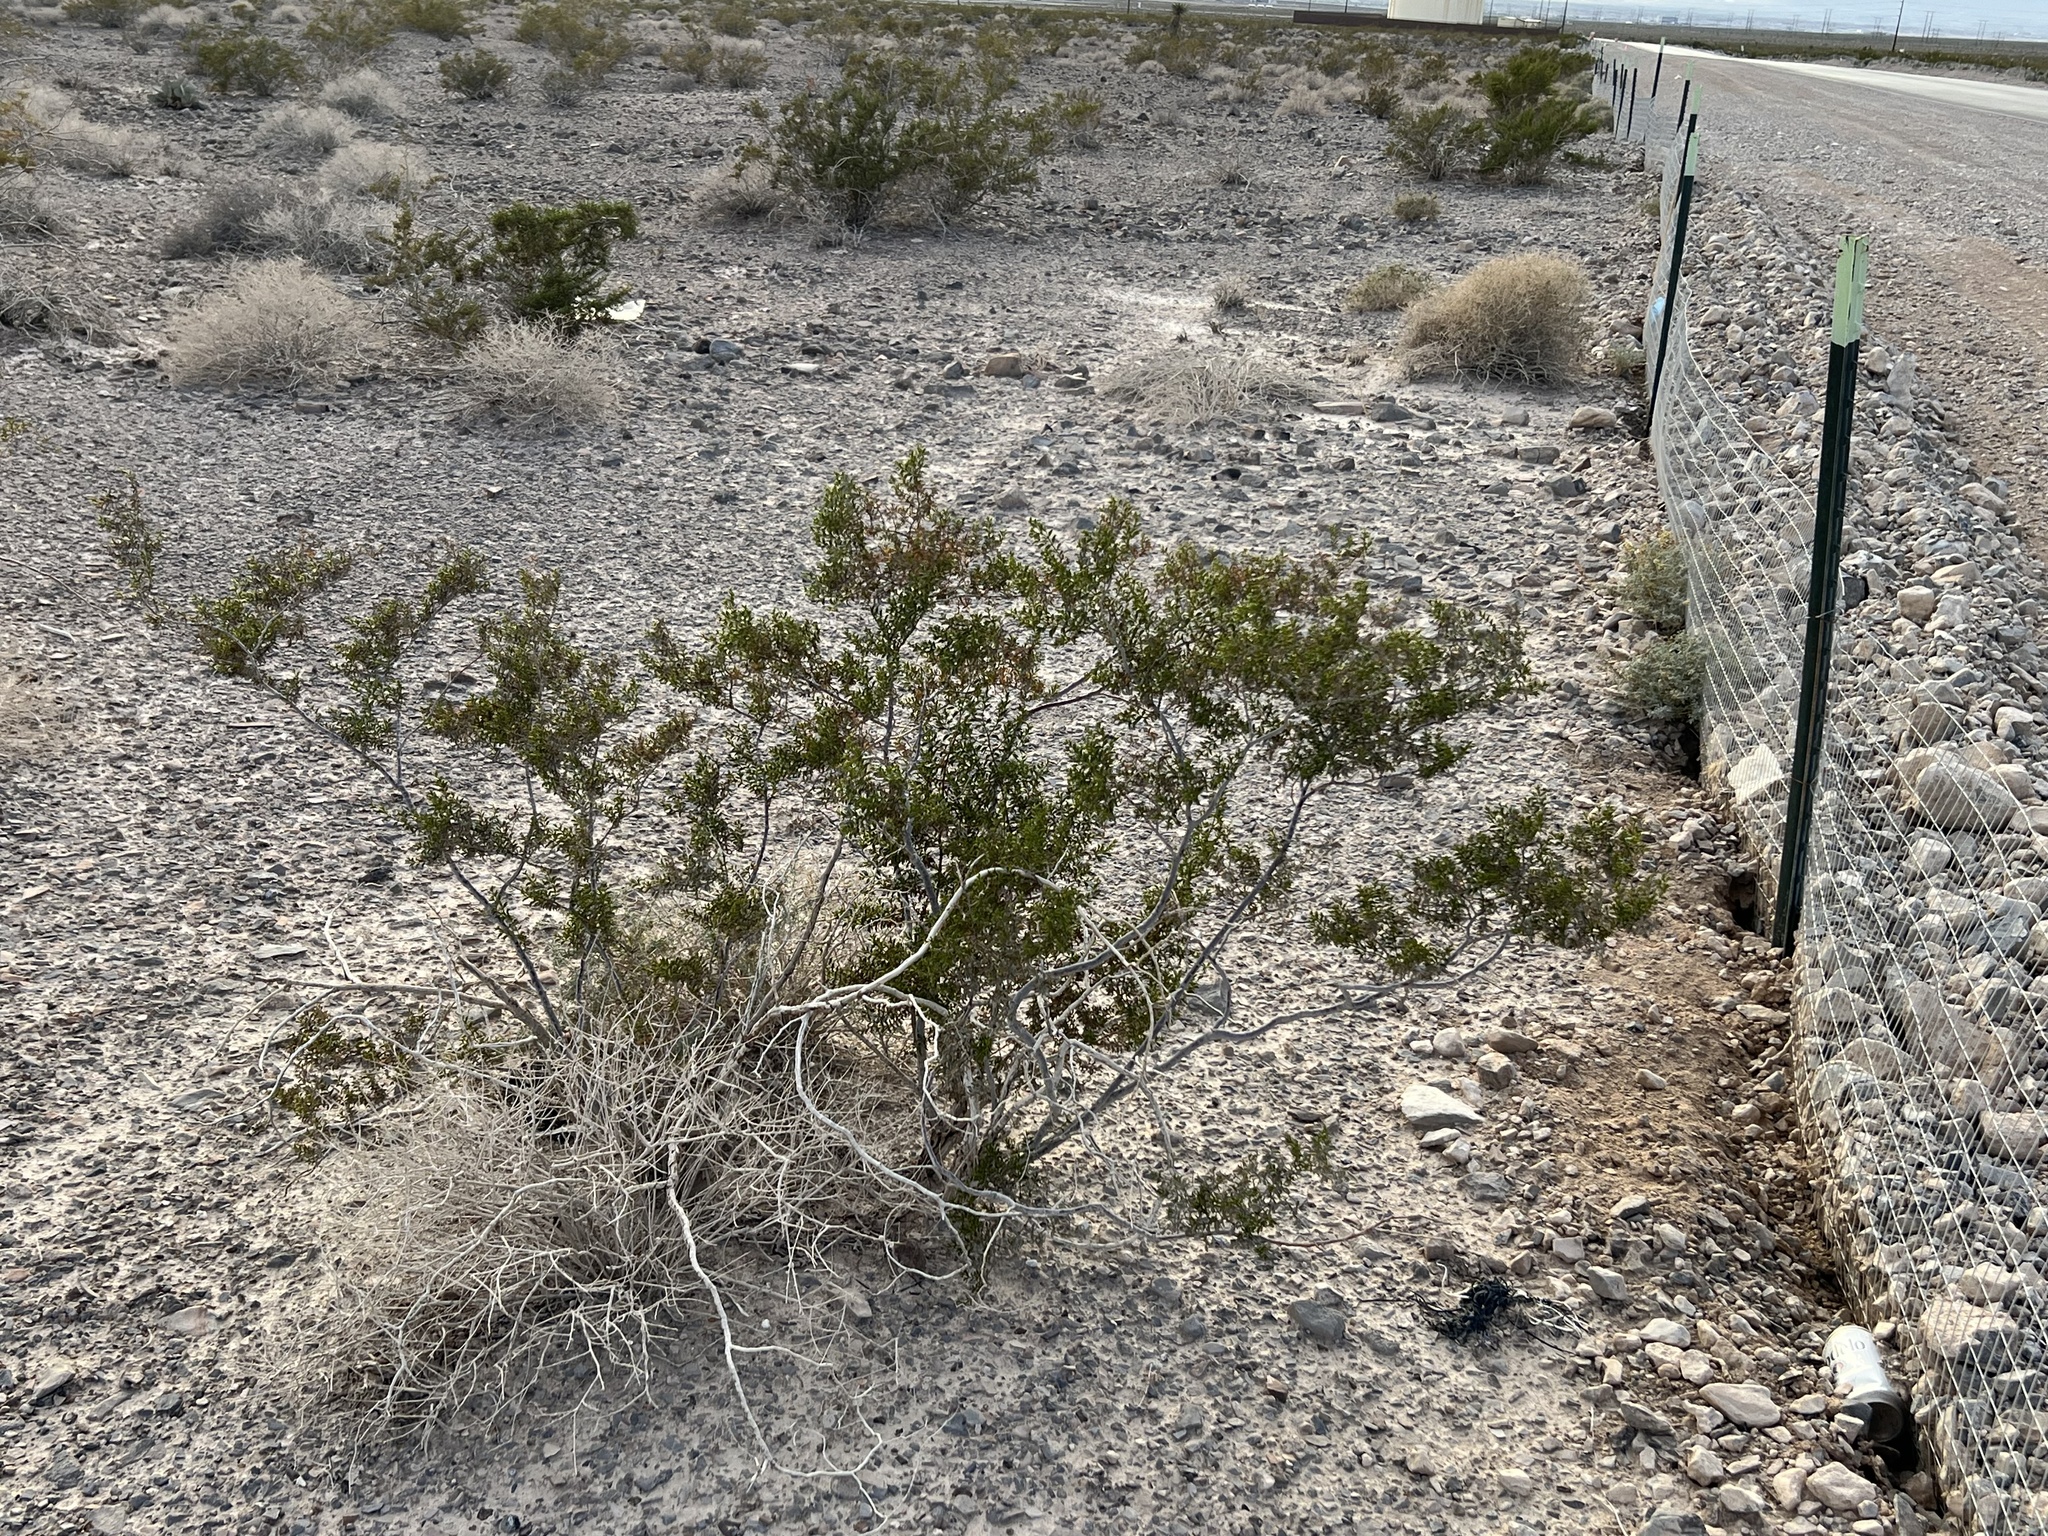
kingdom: Plantae
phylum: Tracheophyta
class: Magnoliopsida
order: Zygophyllales
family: Zygophyllaceae
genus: Larrea
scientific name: Larrea tridentata
